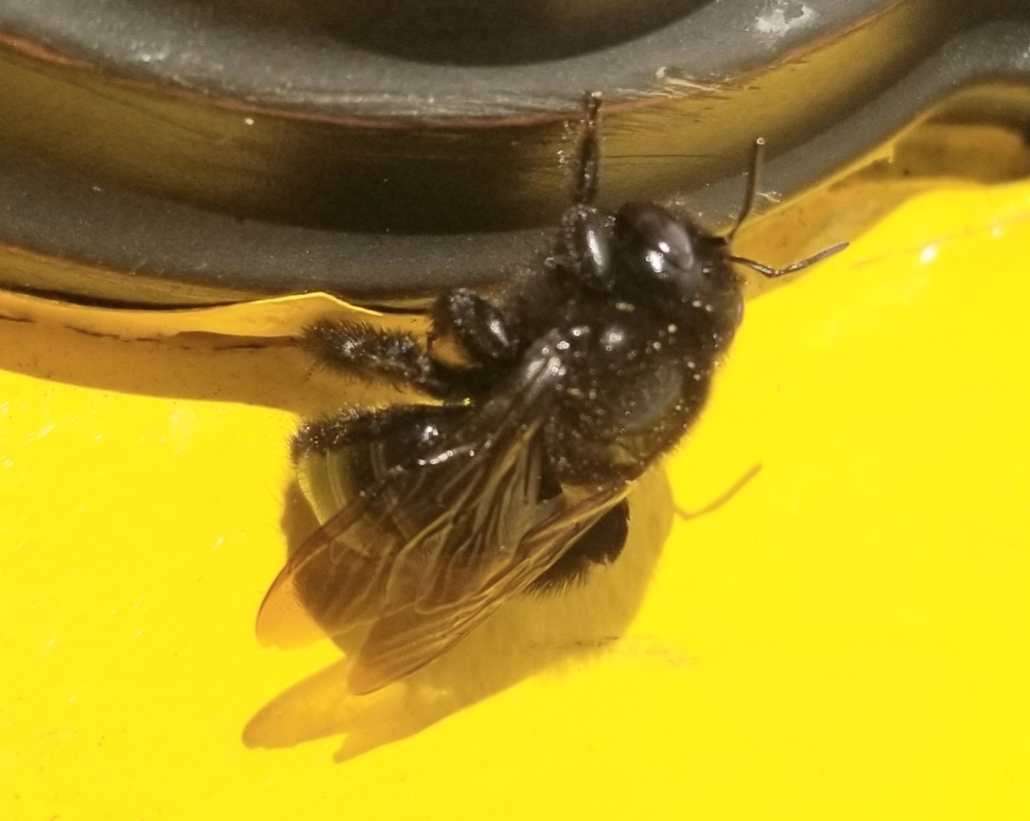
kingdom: Animalia
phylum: Arthropoda
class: Insecta
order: Hymenoptera
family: Apidae
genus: Xylocopa
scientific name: Xylocopa tabaniformis
